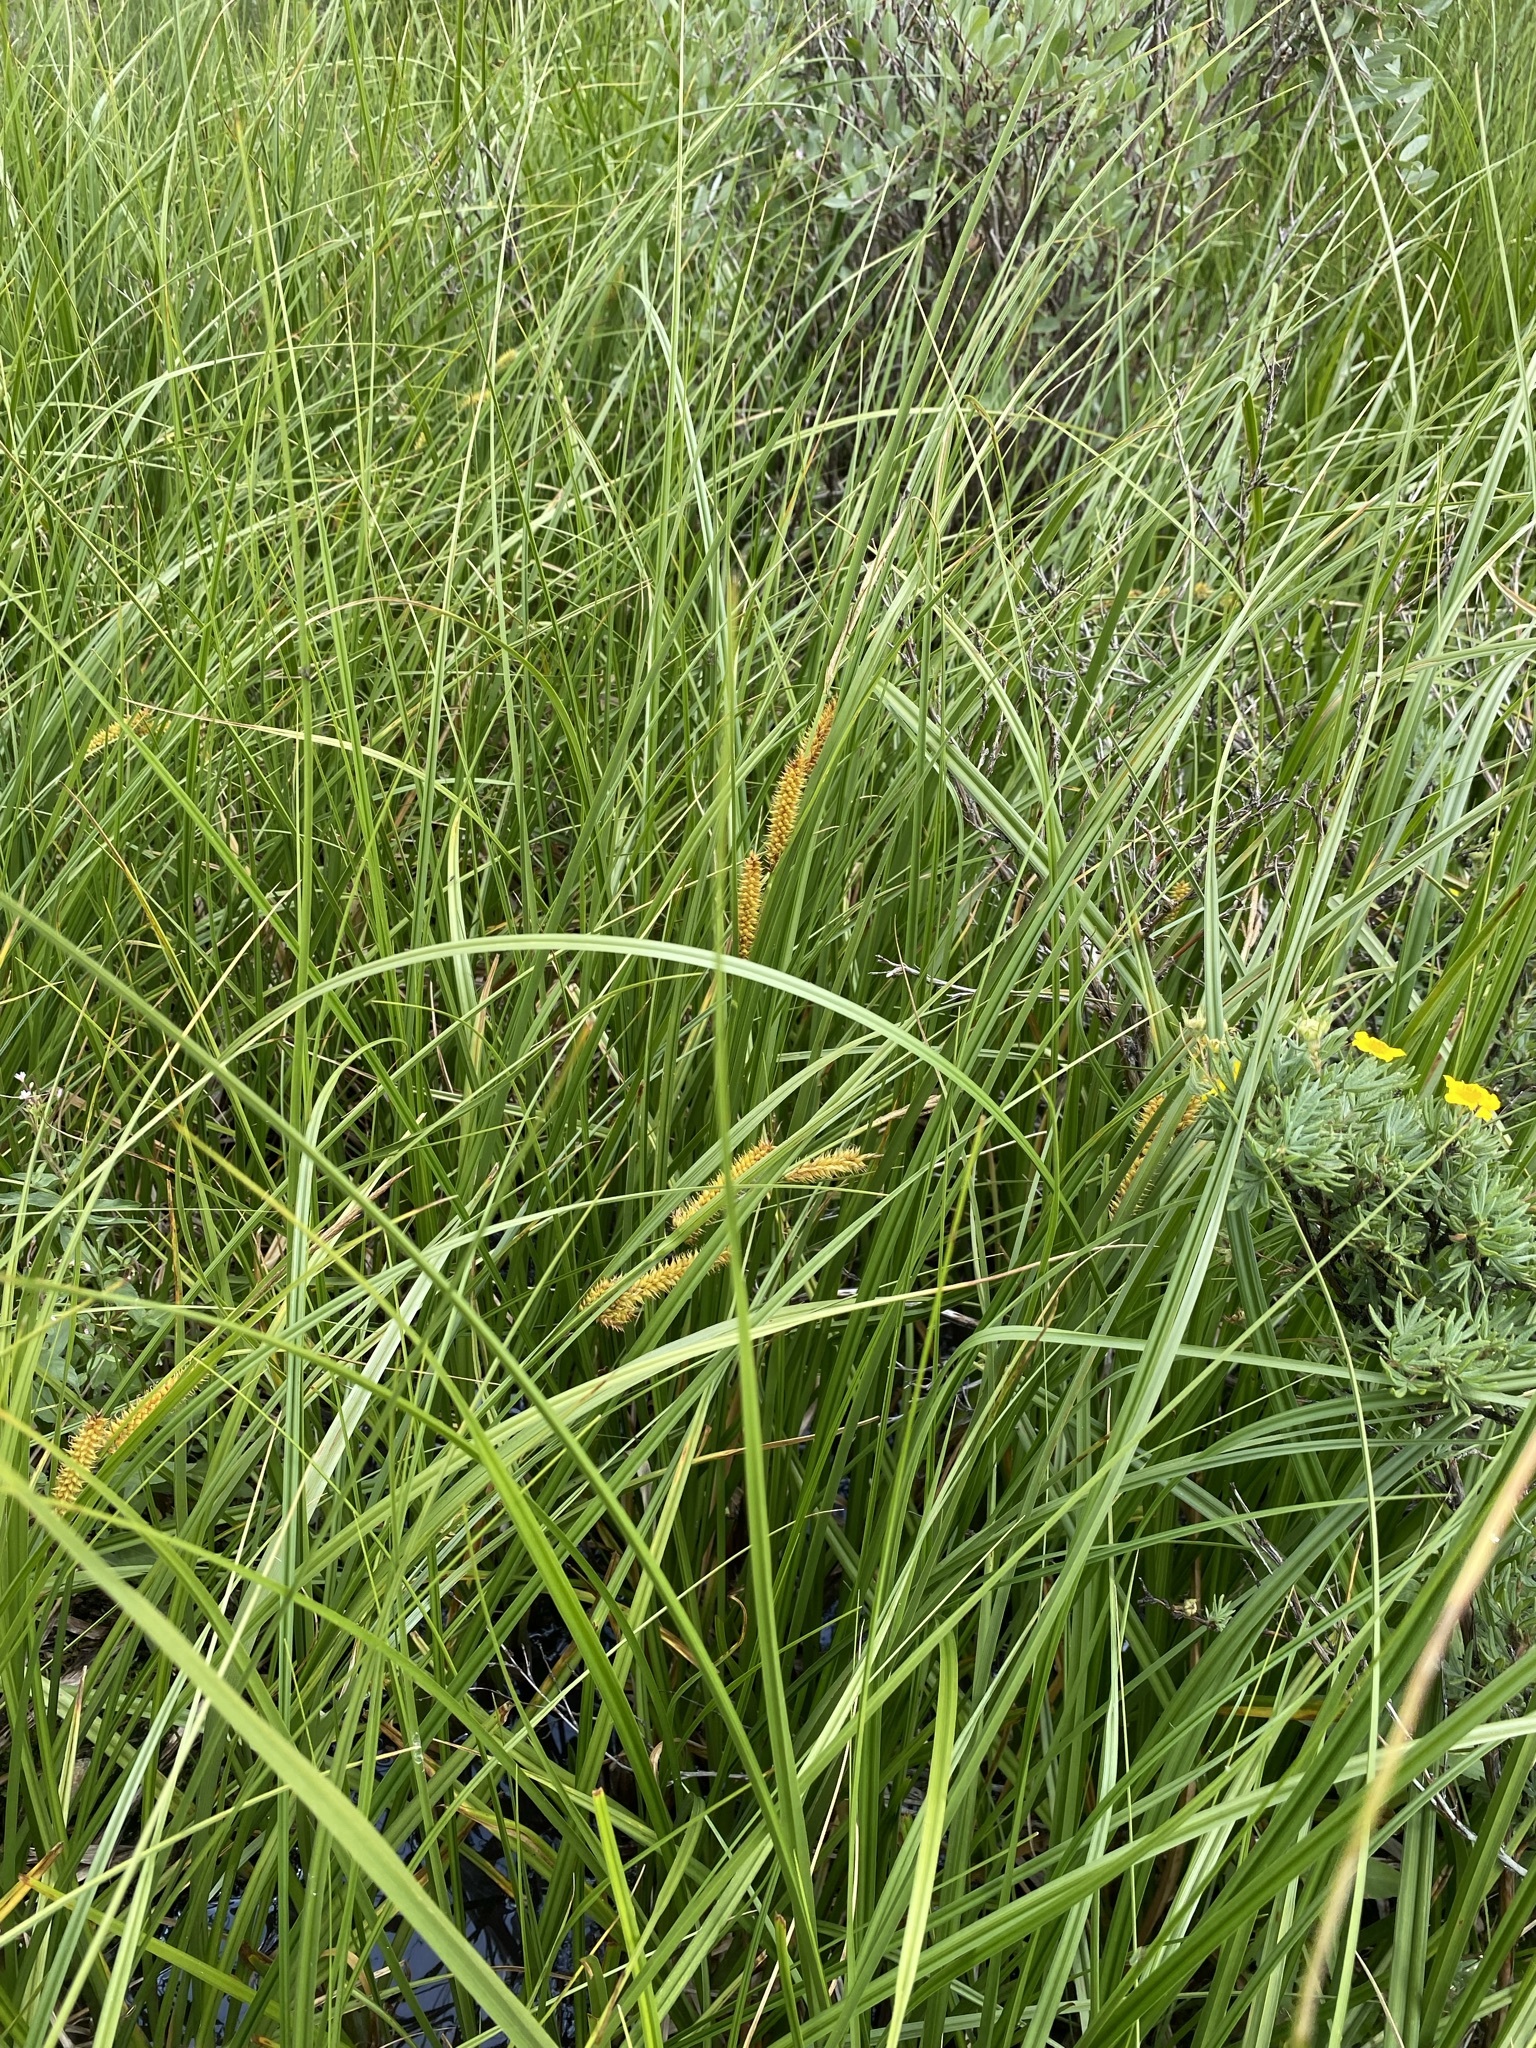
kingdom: Plantae
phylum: Tracheophyta
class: Liliopsida
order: Poales
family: Cyperaceae
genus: Carex
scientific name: Carex utriculata
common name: Beaked sedge
